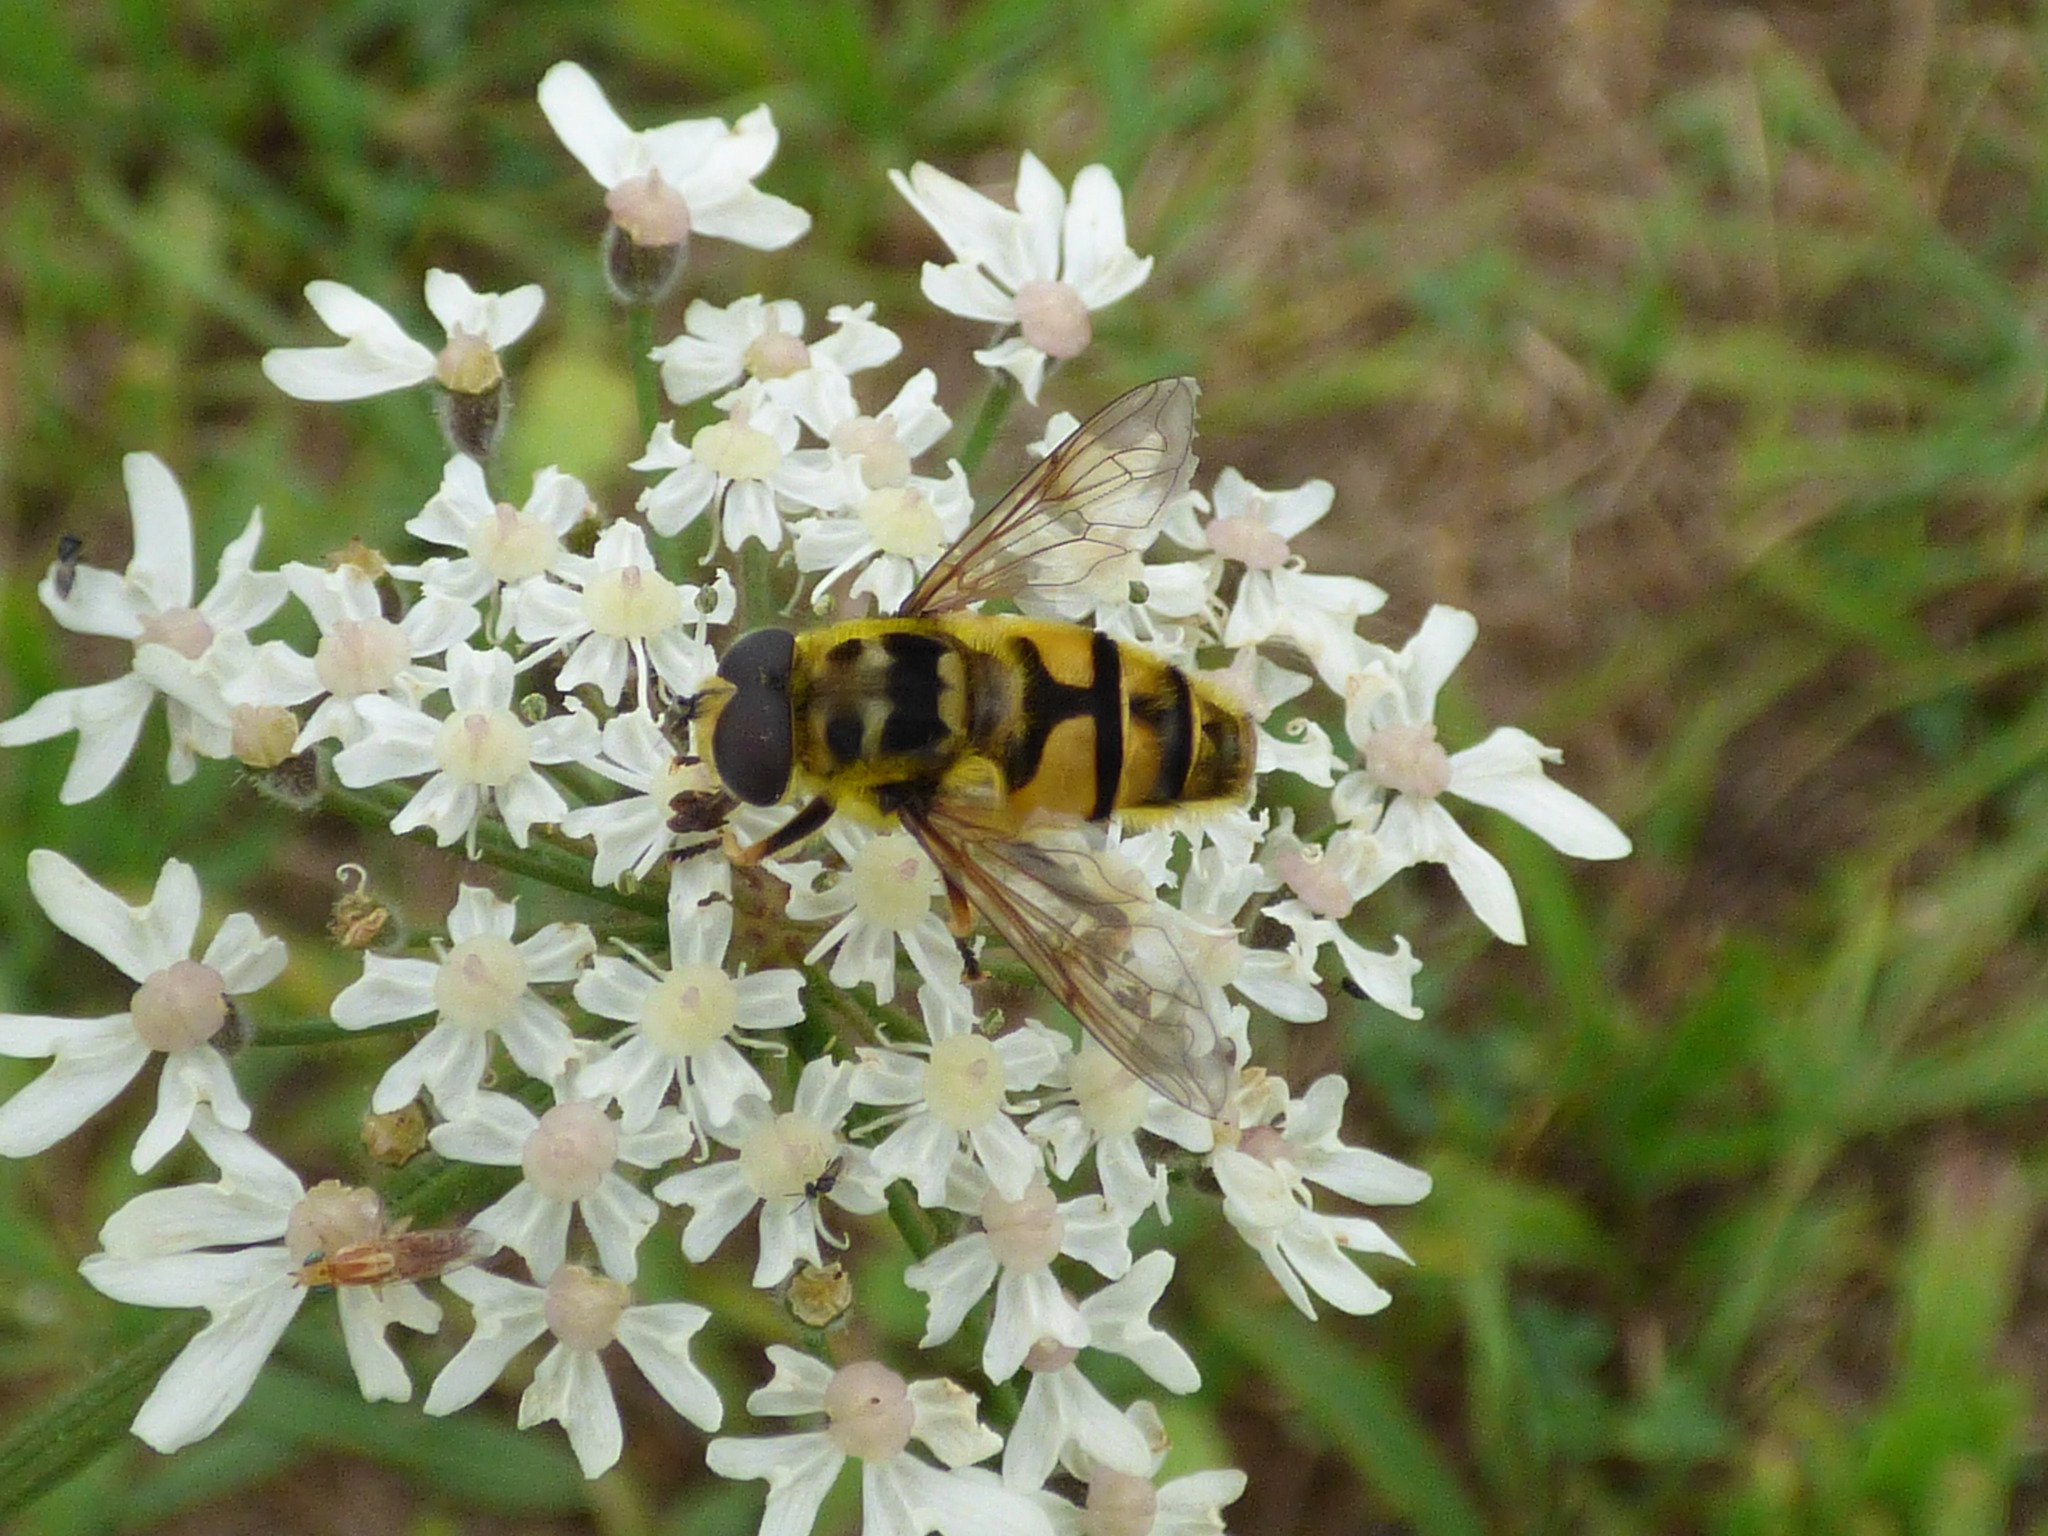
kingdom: Animalia
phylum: Arthropoda
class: Insecta
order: Diptera
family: Syrphidae
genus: Myathropa
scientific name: Myathropa florea
